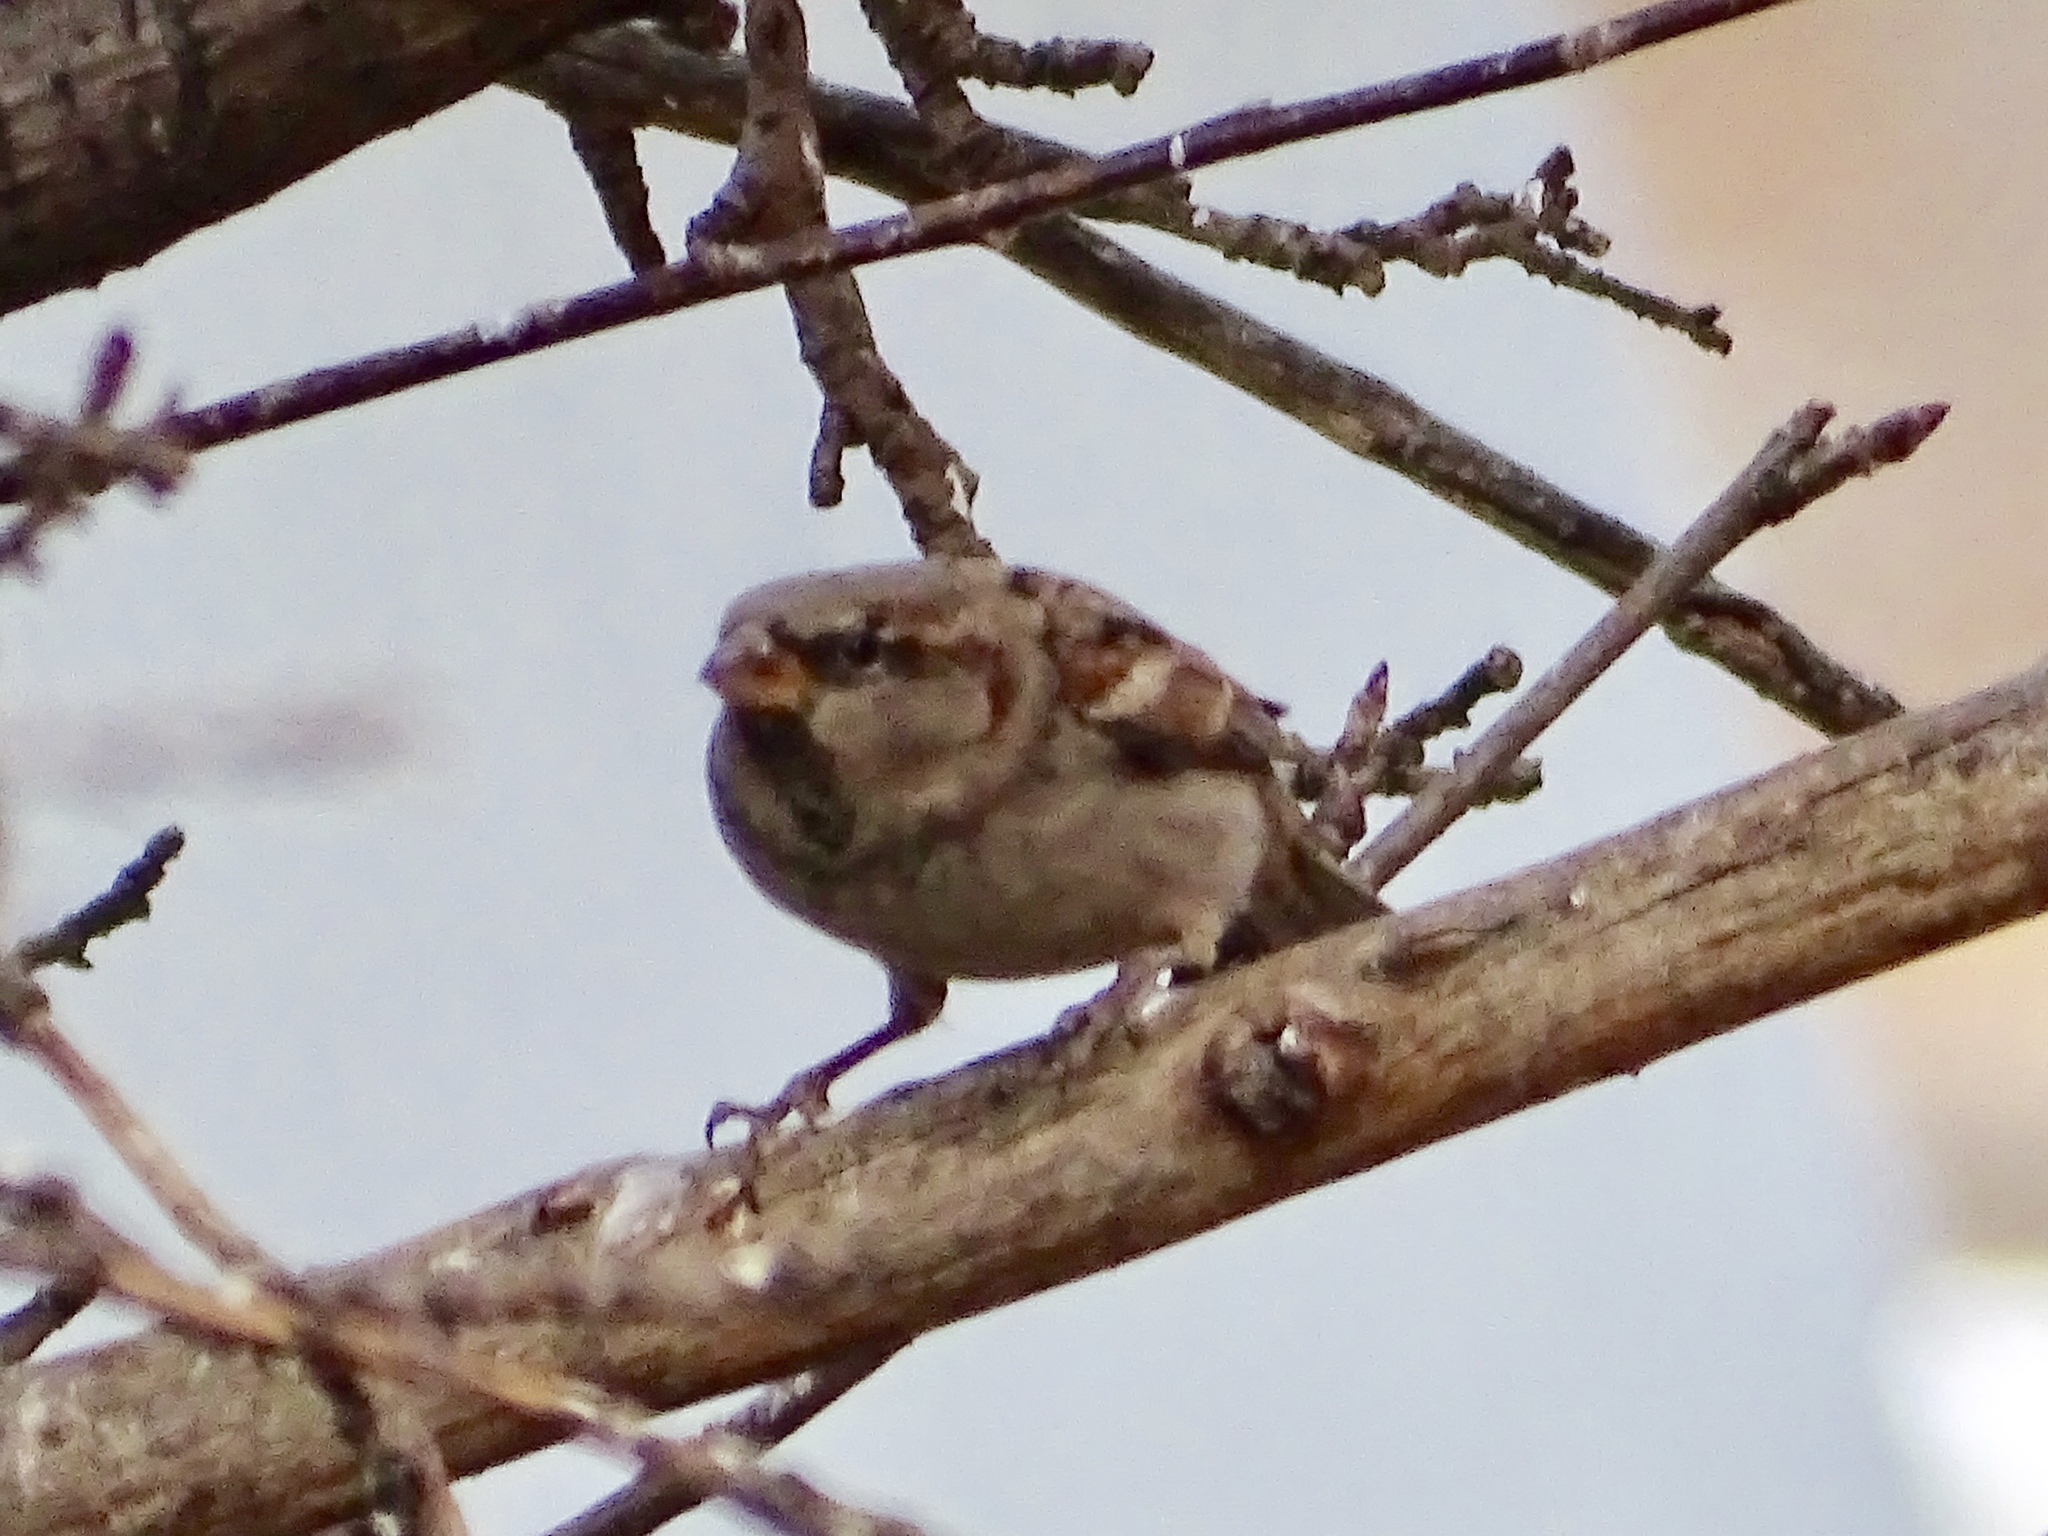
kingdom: Animalia
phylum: Chordata
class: Aves
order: Passeriformes
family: Passeridae
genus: Passer
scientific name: Passer domesticus
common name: House sparrow
